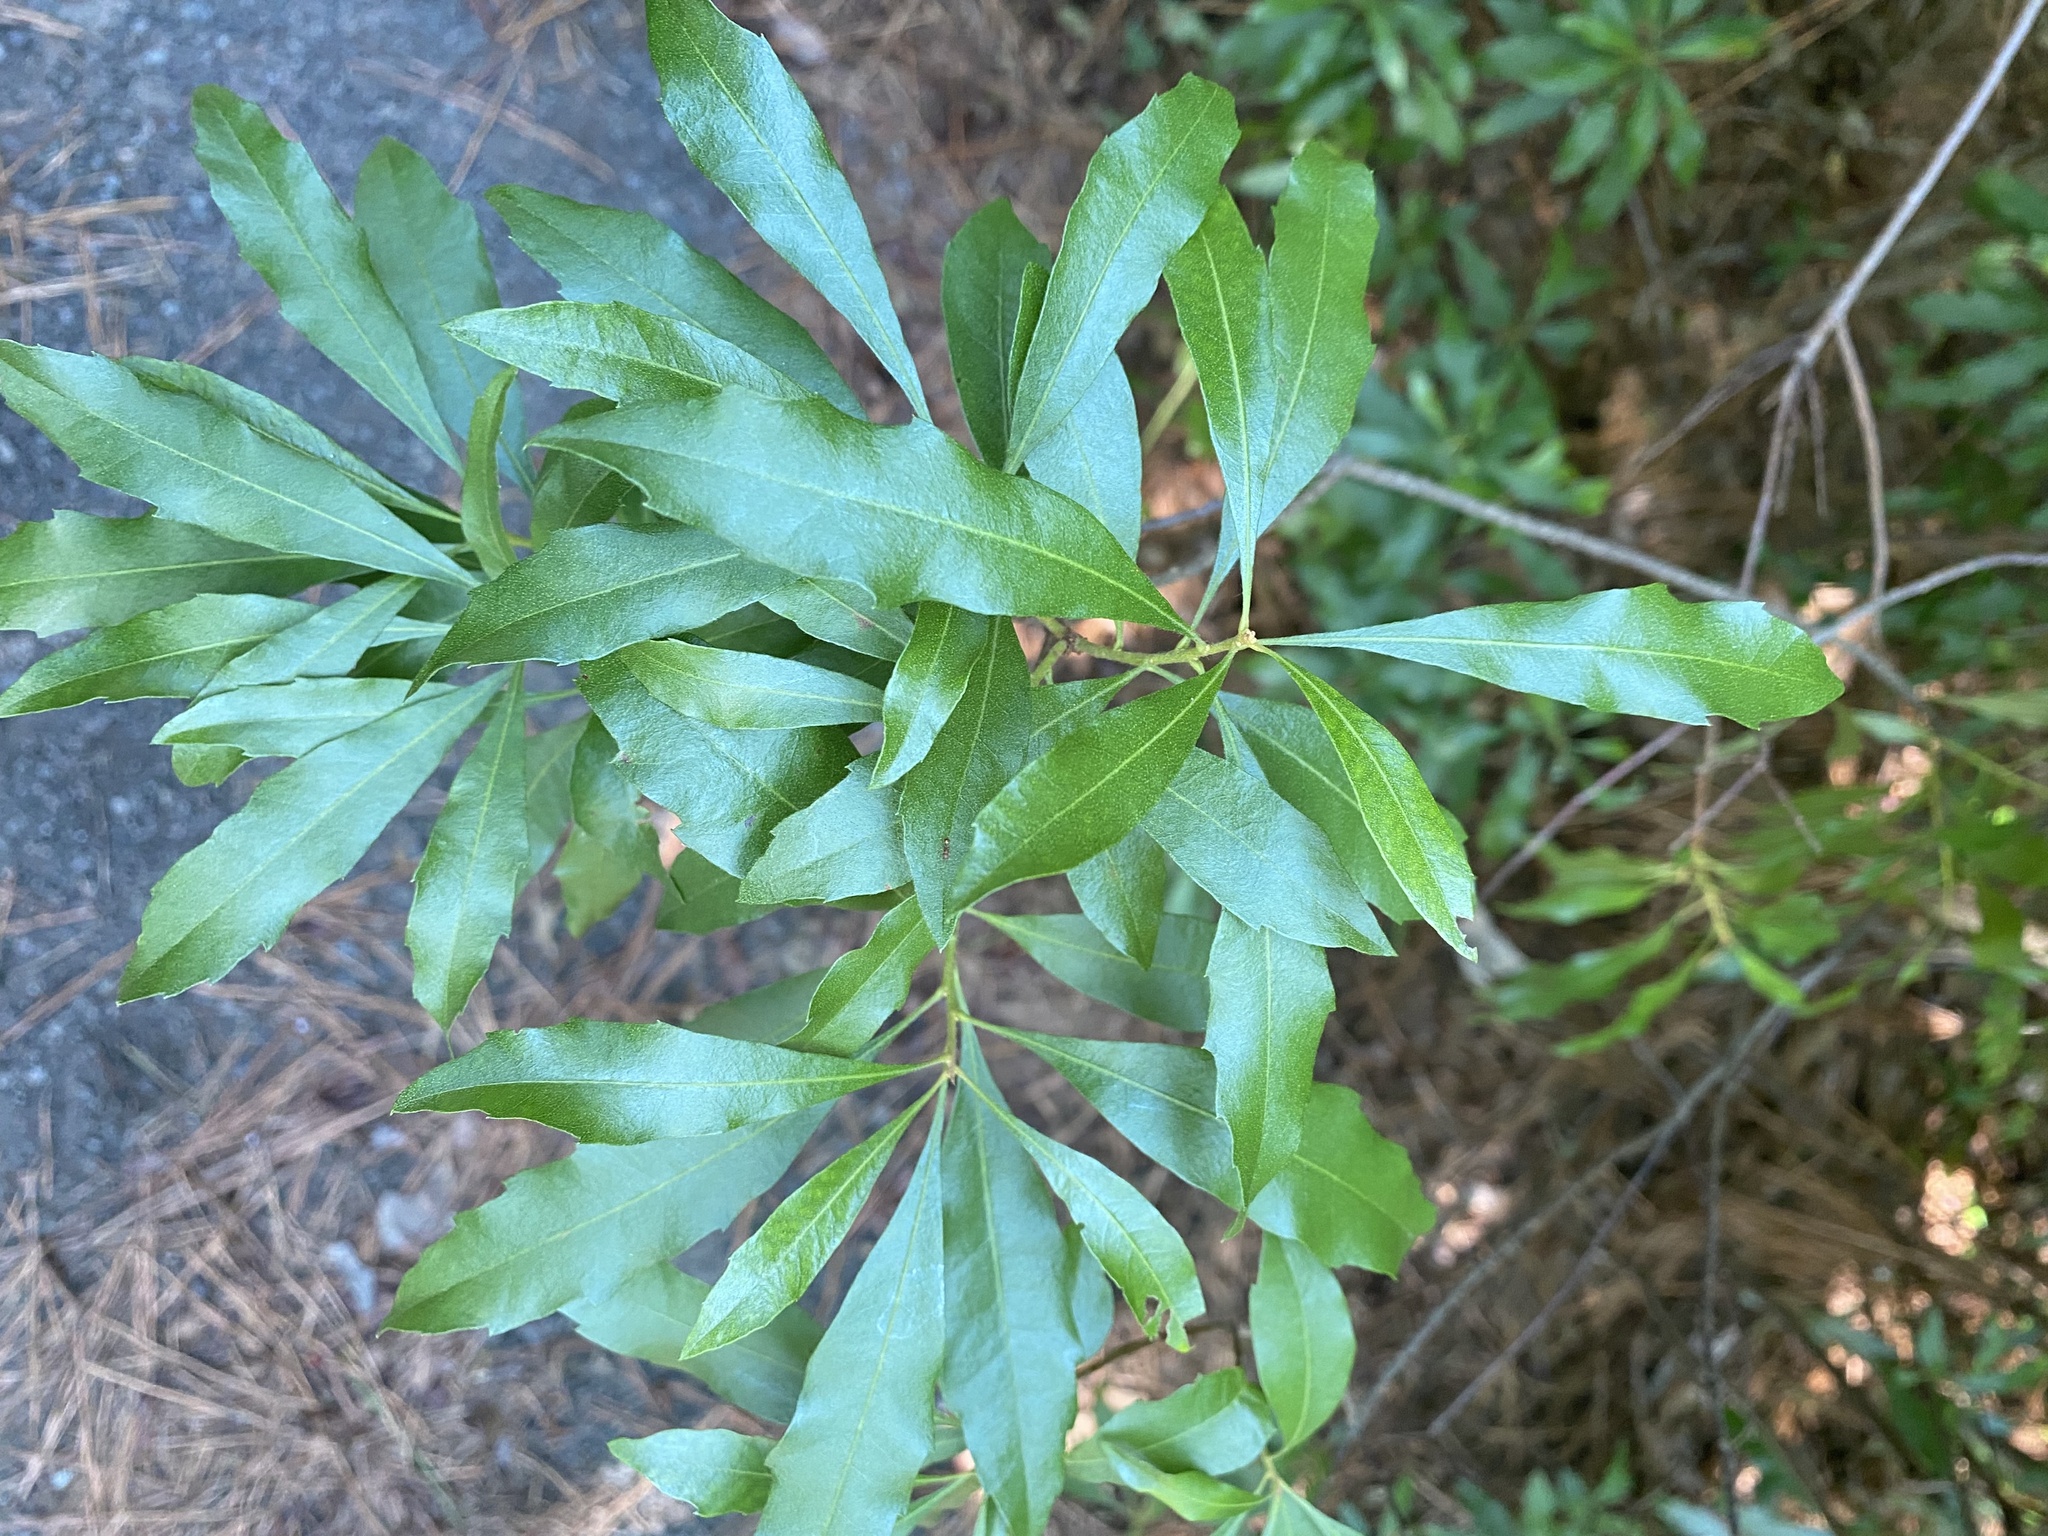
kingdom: Plantae
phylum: Tracheophyta
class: Magnoliopsida
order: Fagales
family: Myricaceae
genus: Morella
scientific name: Morella cerifera
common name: Wax myrtle
